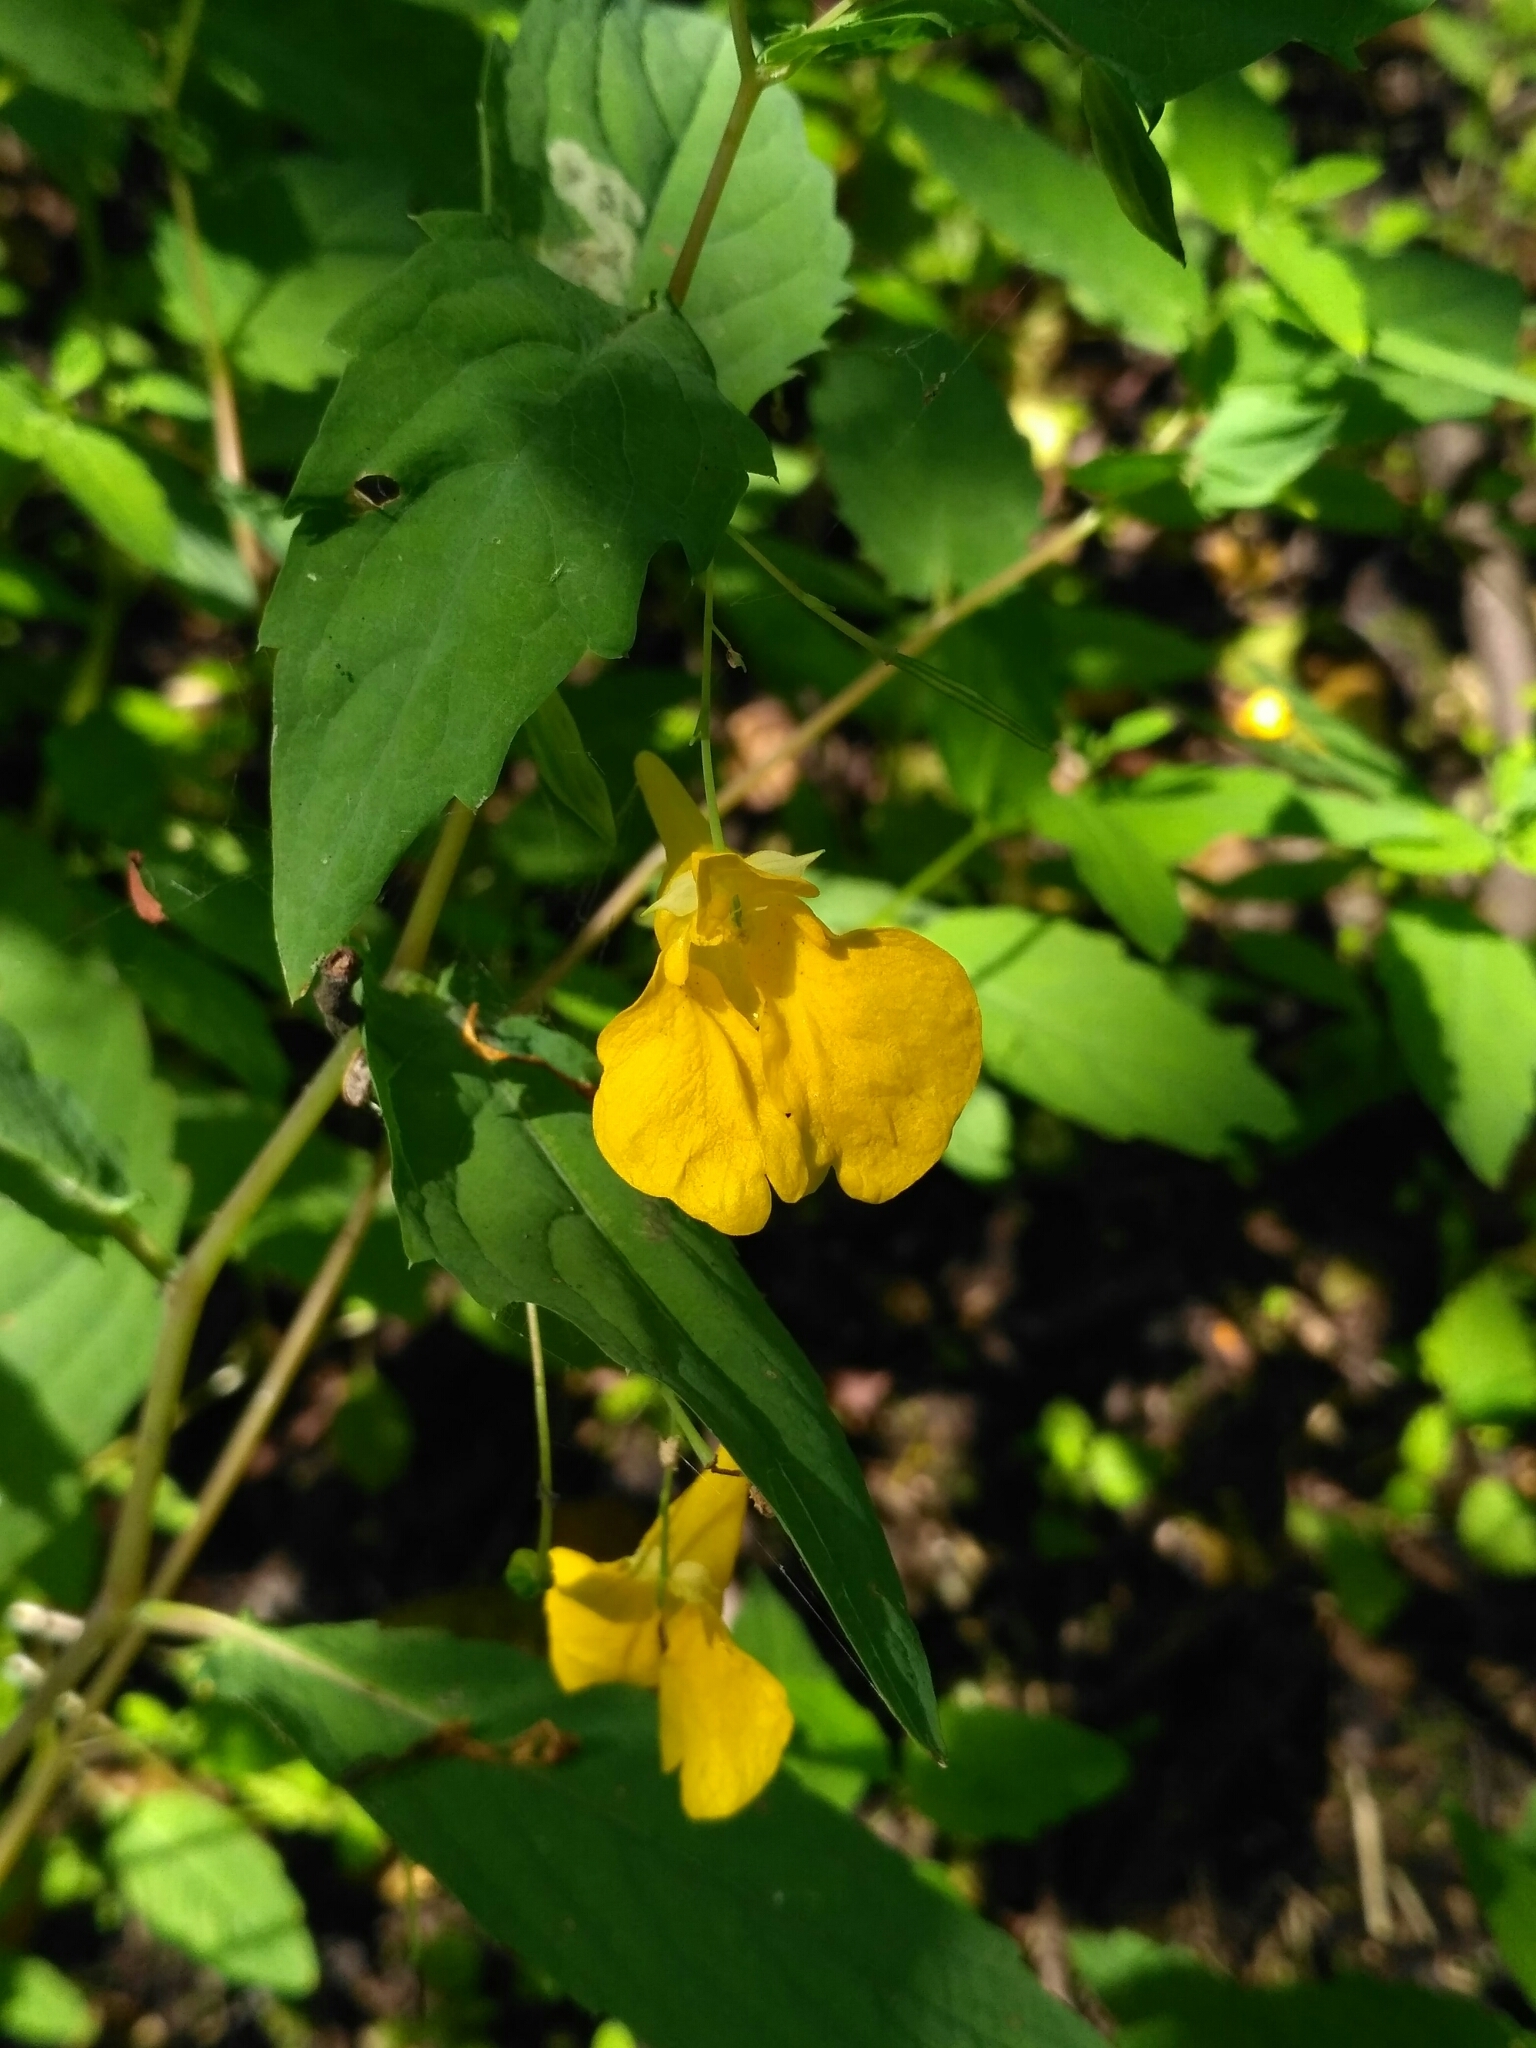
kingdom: Plantae
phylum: Tracheophyta
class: Magnoliopsida
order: Ericales
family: Balsaminaceae
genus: Impatiens
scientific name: Impatiens noli-tangere
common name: Touch-me-not balsam
